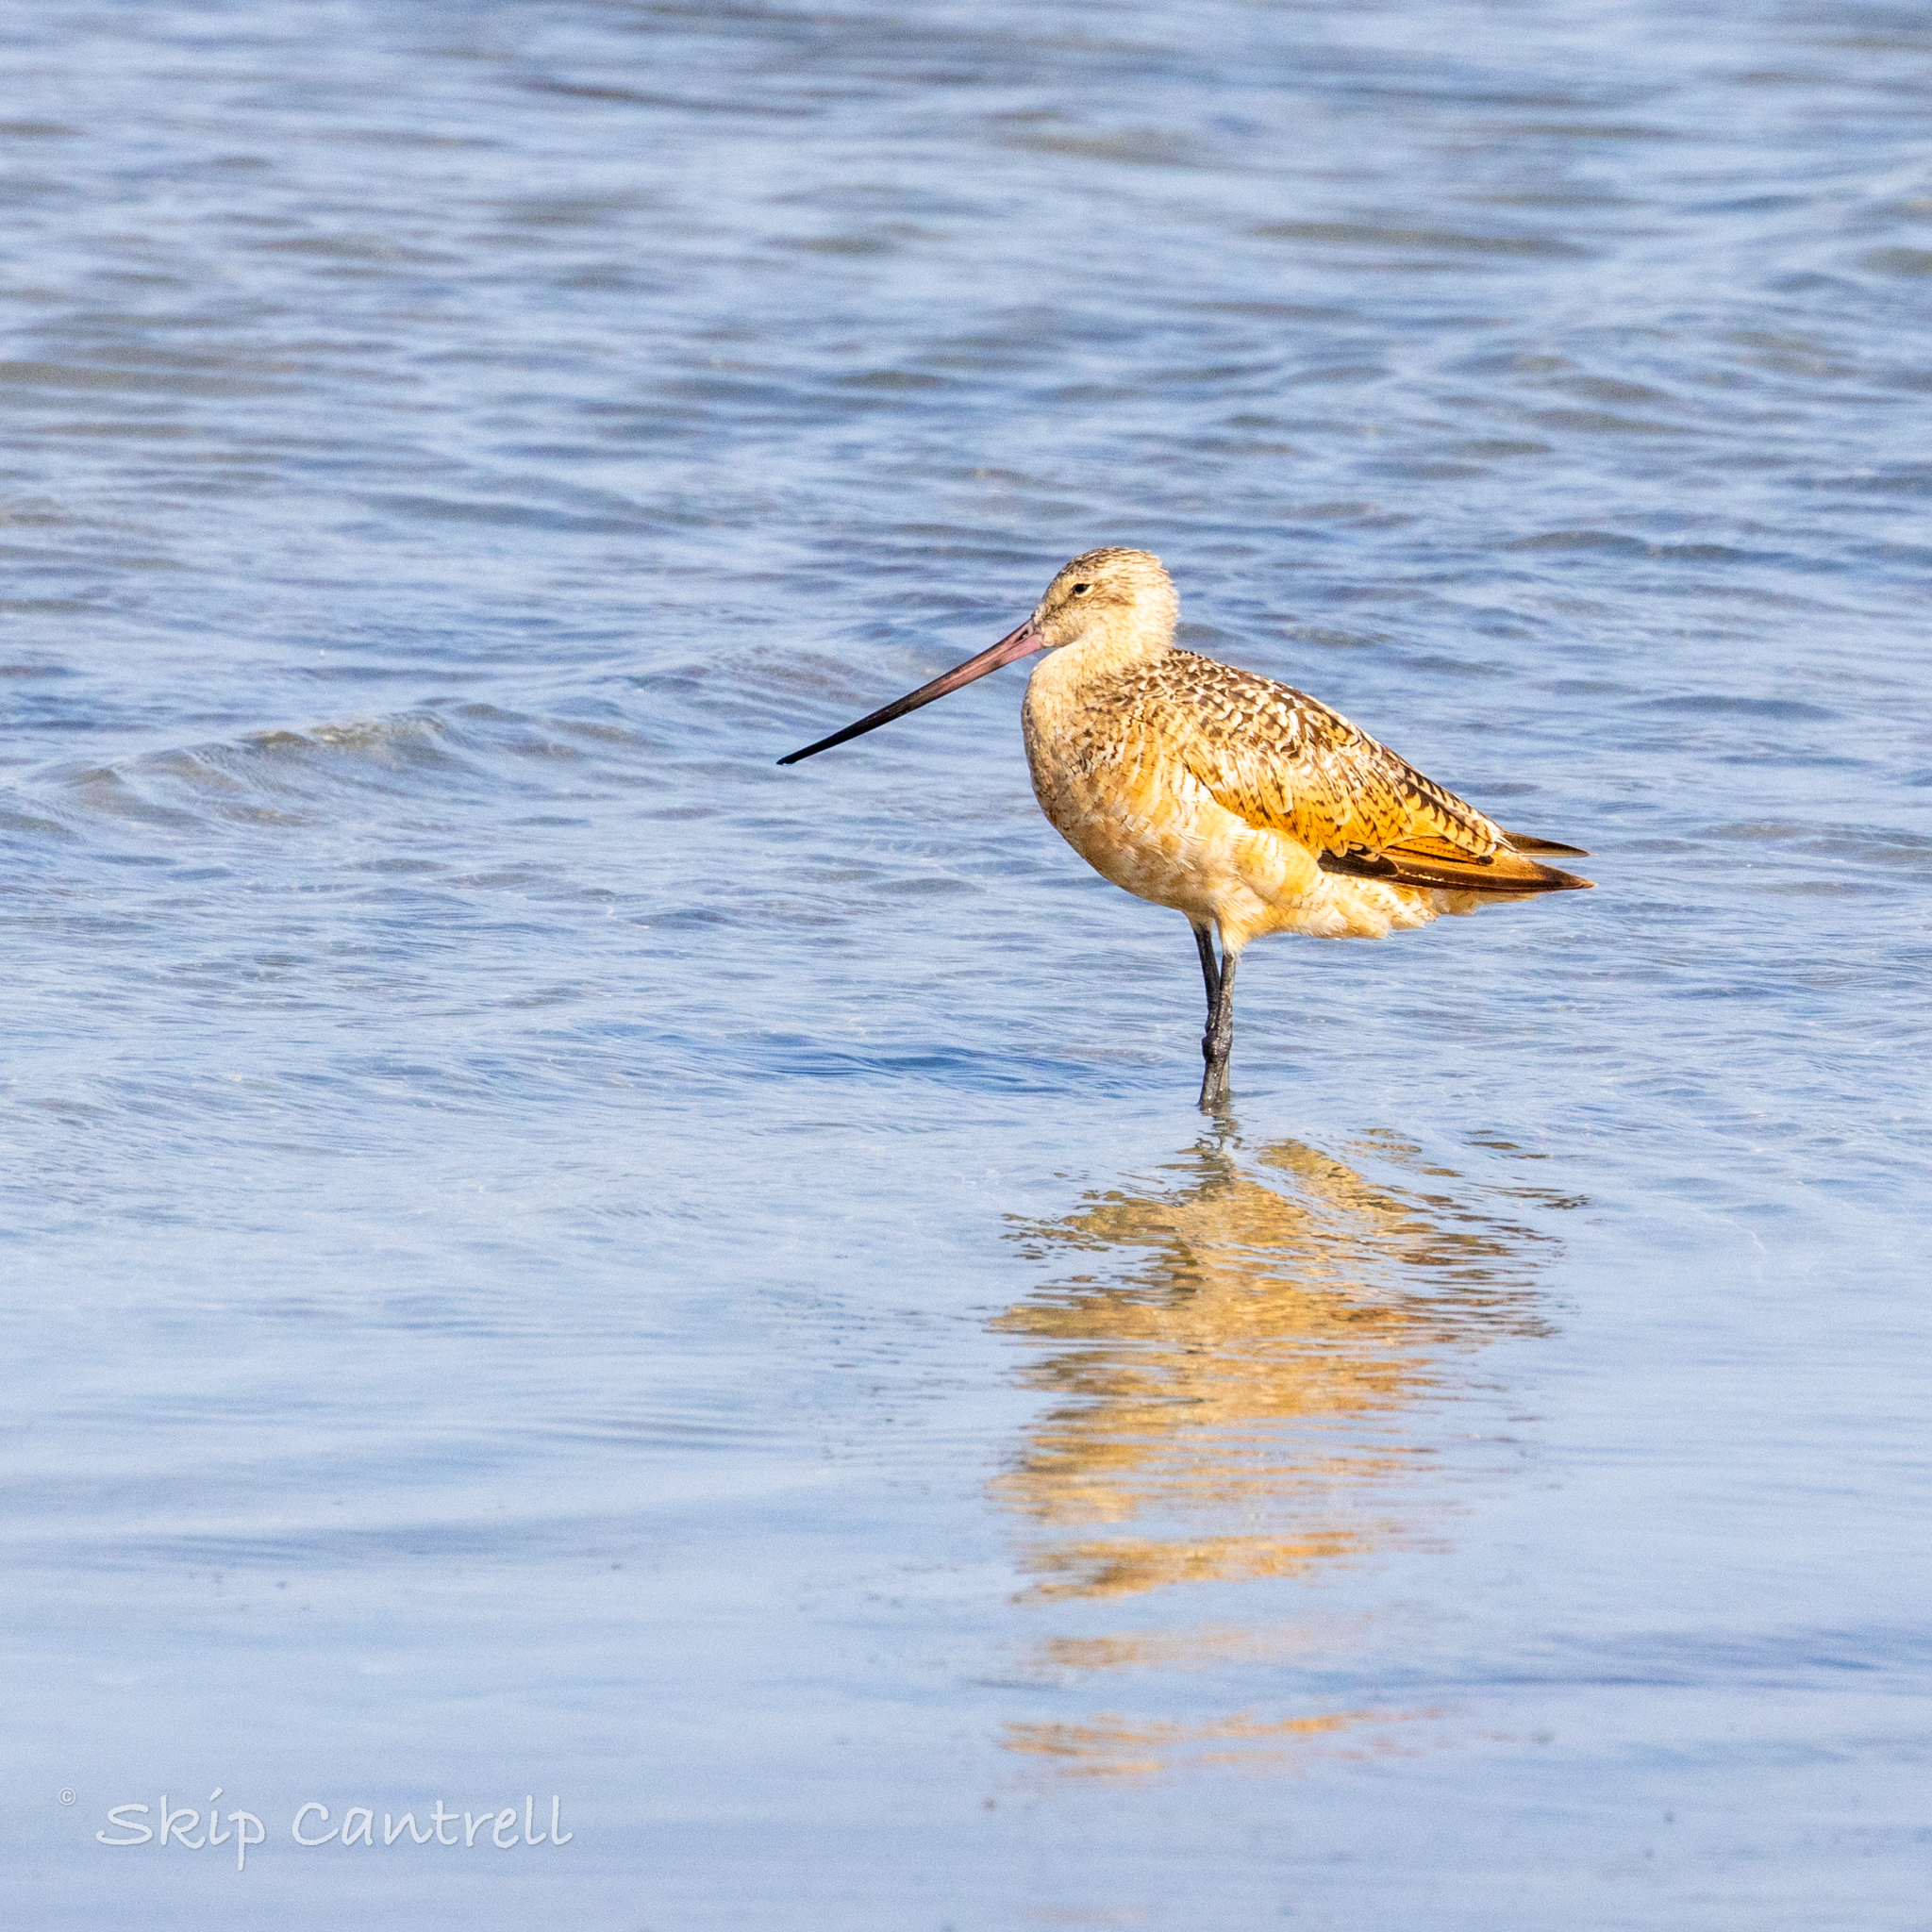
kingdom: Animalia
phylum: Chordata
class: Aves
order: Charadriiformes
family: Scolopacidae
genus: Limosa
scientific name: Limosa fedoa
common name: Marbled godwit
